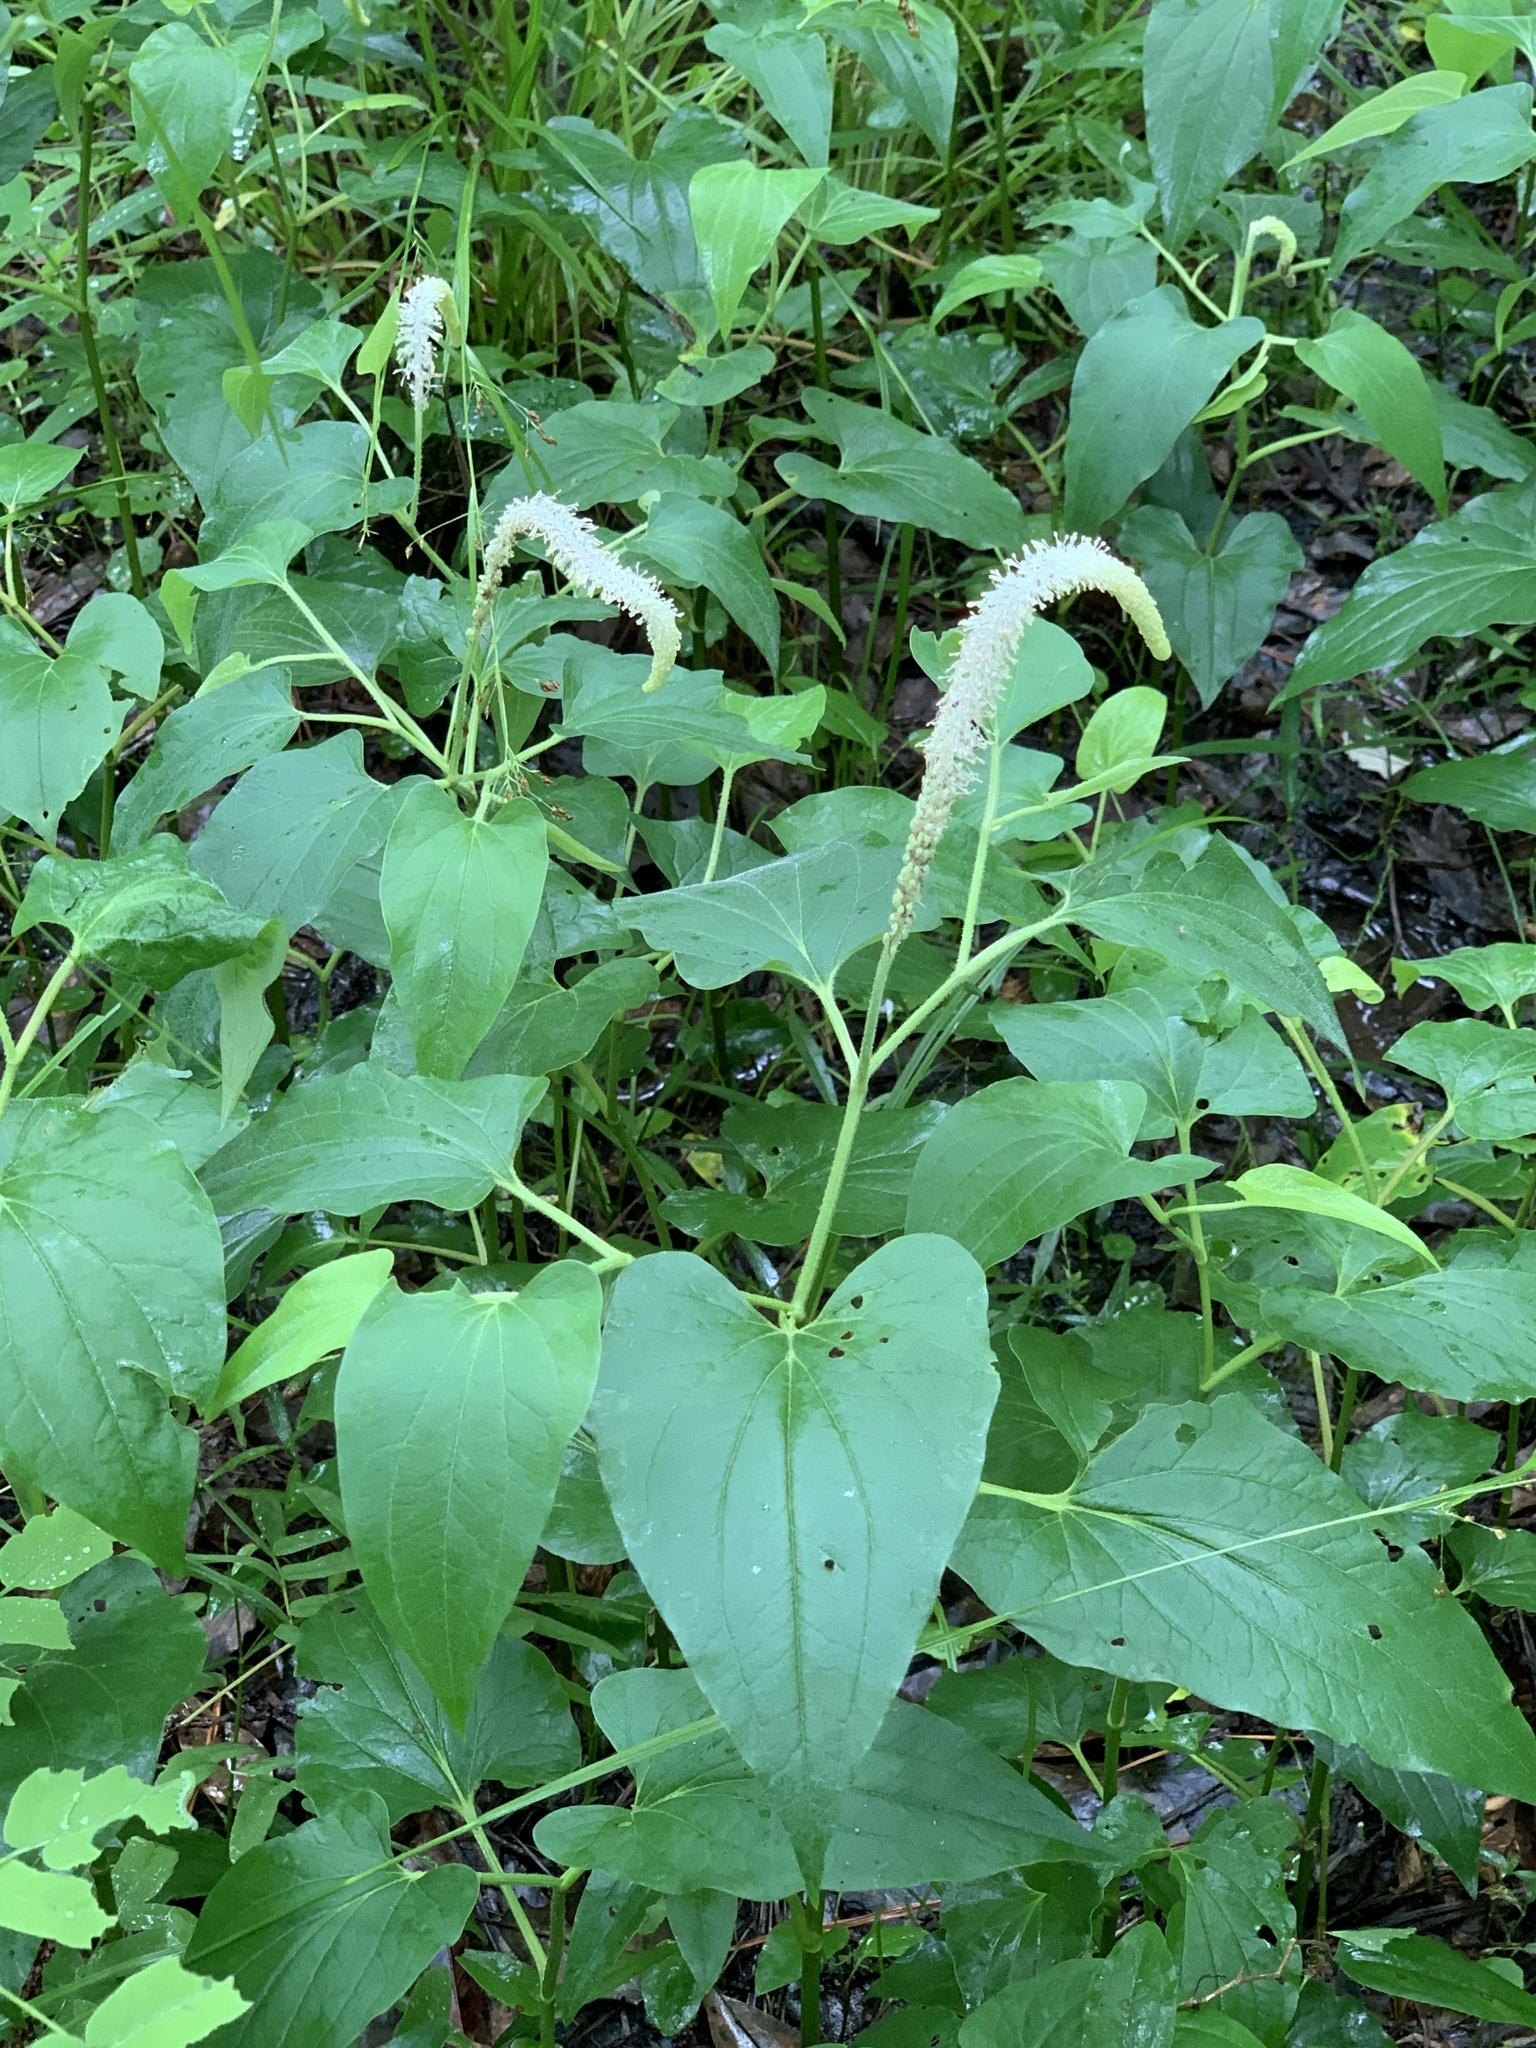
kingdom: Plantae
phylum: Tracheophyta
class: Magnoliopsida
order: Piperales
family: Saururaceae
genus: Saururus
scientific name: Saururus cernuus
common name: Lizard's-tail
